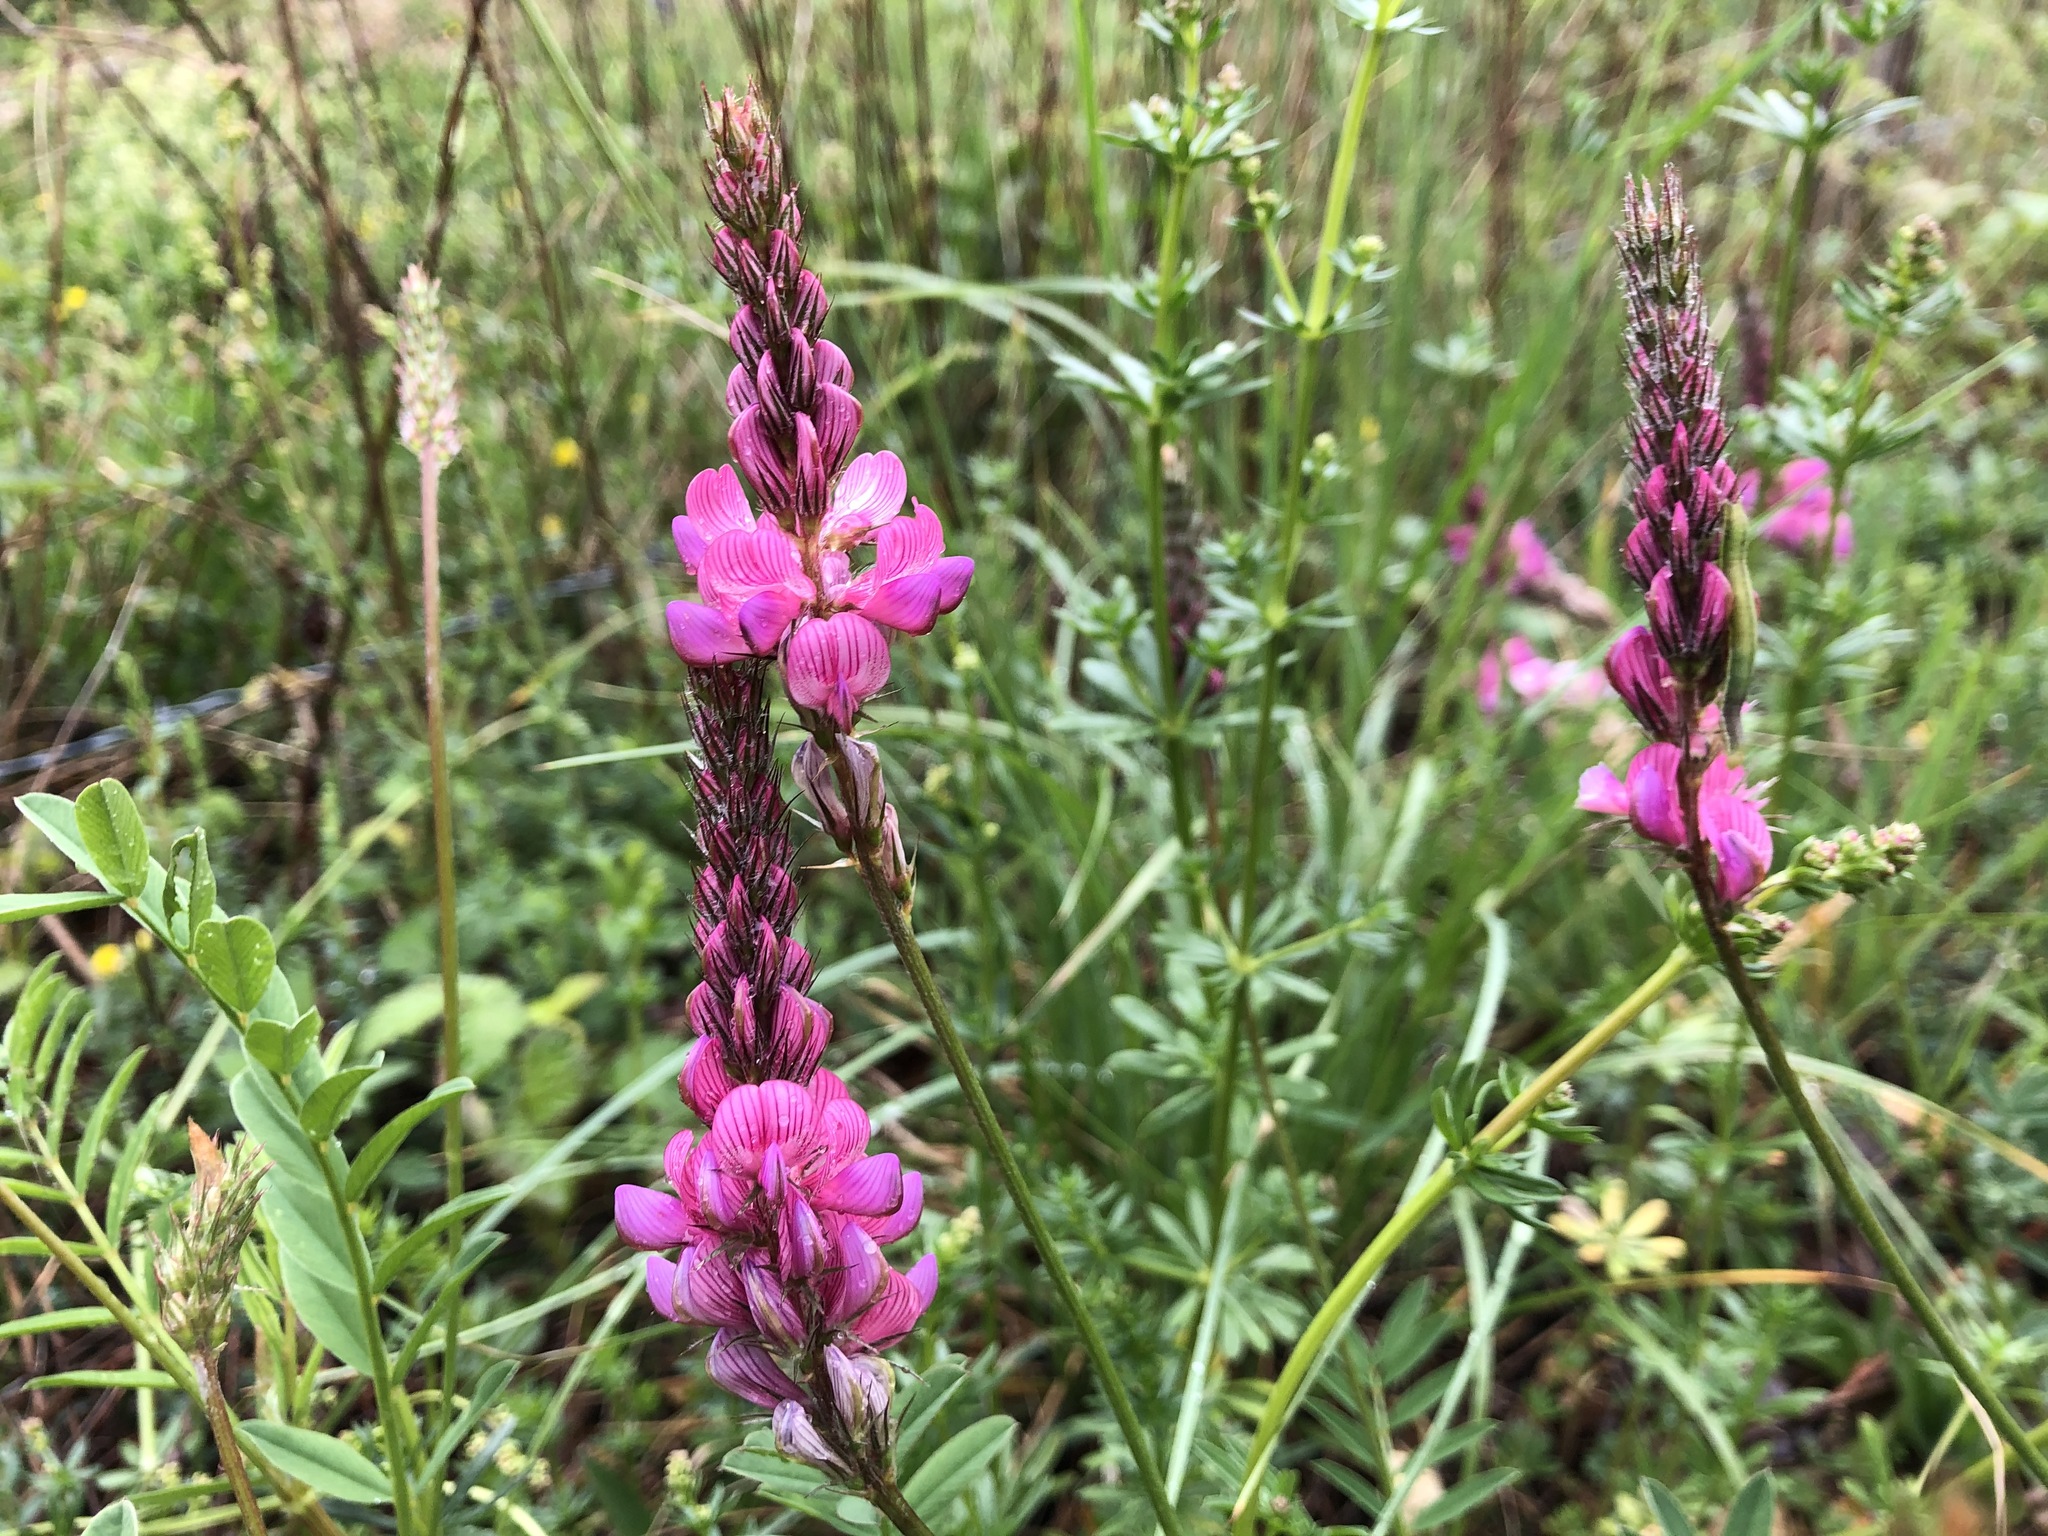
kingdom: Plantae
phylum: Tracheophyta
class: Magnoliopsida
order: Fabales
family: Fabaceae
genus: Onobrychis
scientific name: Onobrychis viciifolia
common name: Sainfoin
